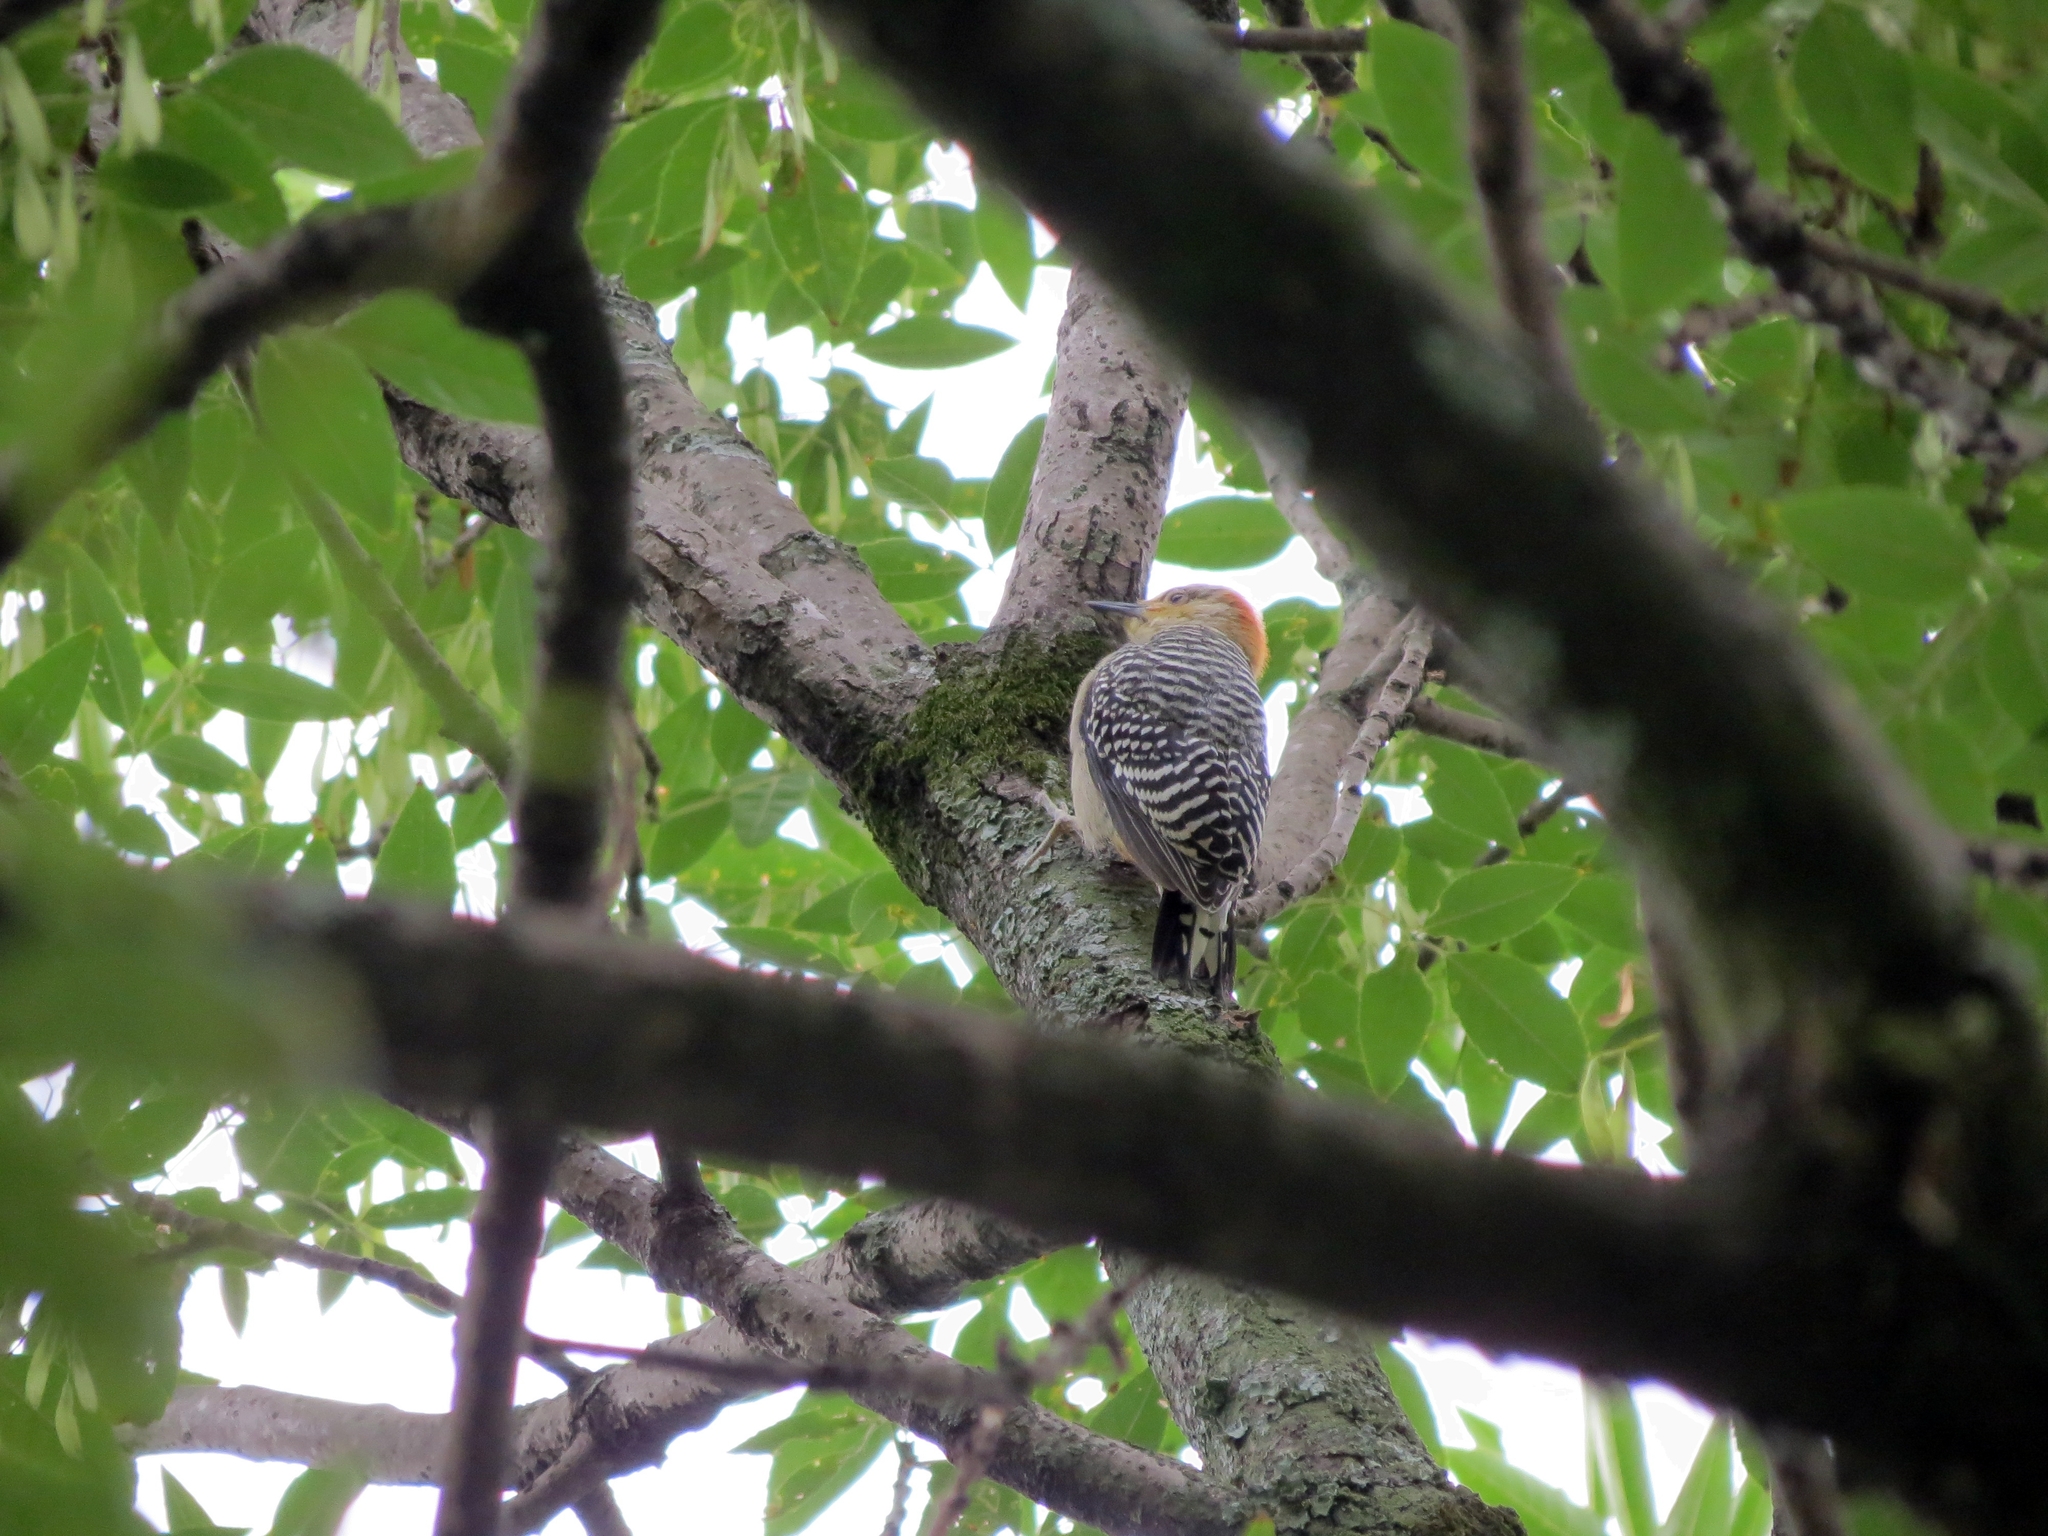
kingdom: Animalia
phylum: Chordata
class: Aves
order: Piciformes
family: Picidae
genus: Melanerpes
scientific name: Melanerpes rubricapillus
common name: Red-crowned woodpecker
